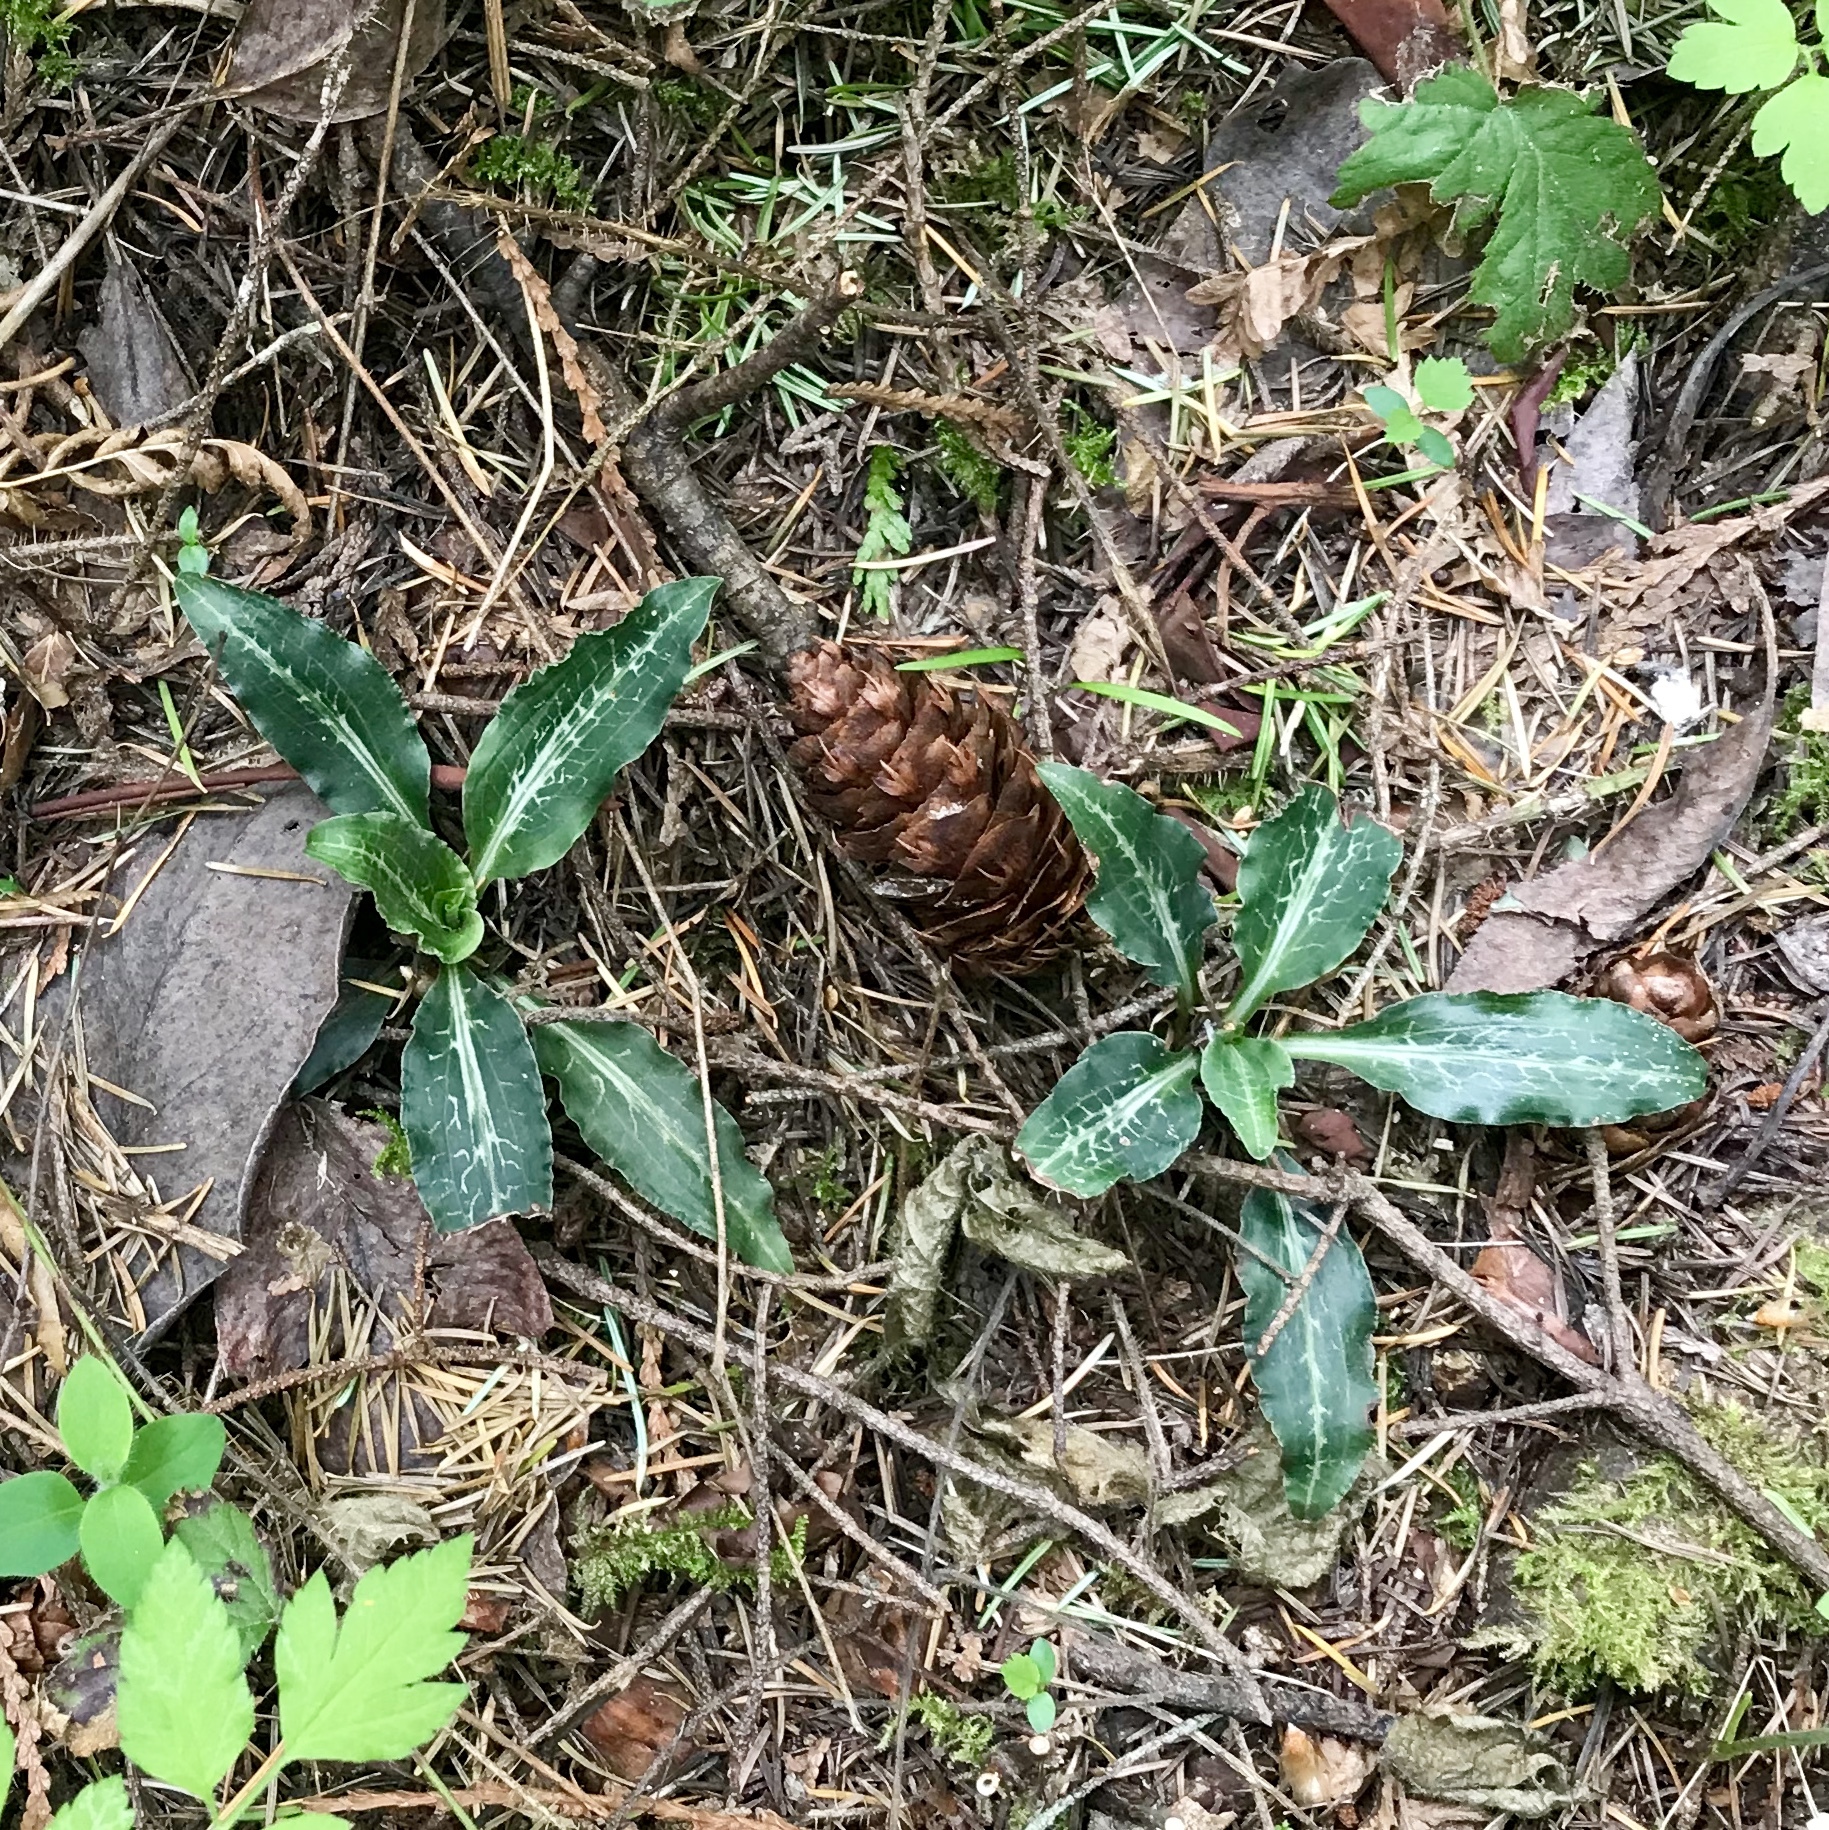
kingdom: Plantae
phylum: Tracheophyta
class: Liliopsida
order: Asparagales
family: Orchidaceae
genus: Goodyera
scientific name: Goodyera oblongifolia
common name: Giant rattlesnake-plantain
